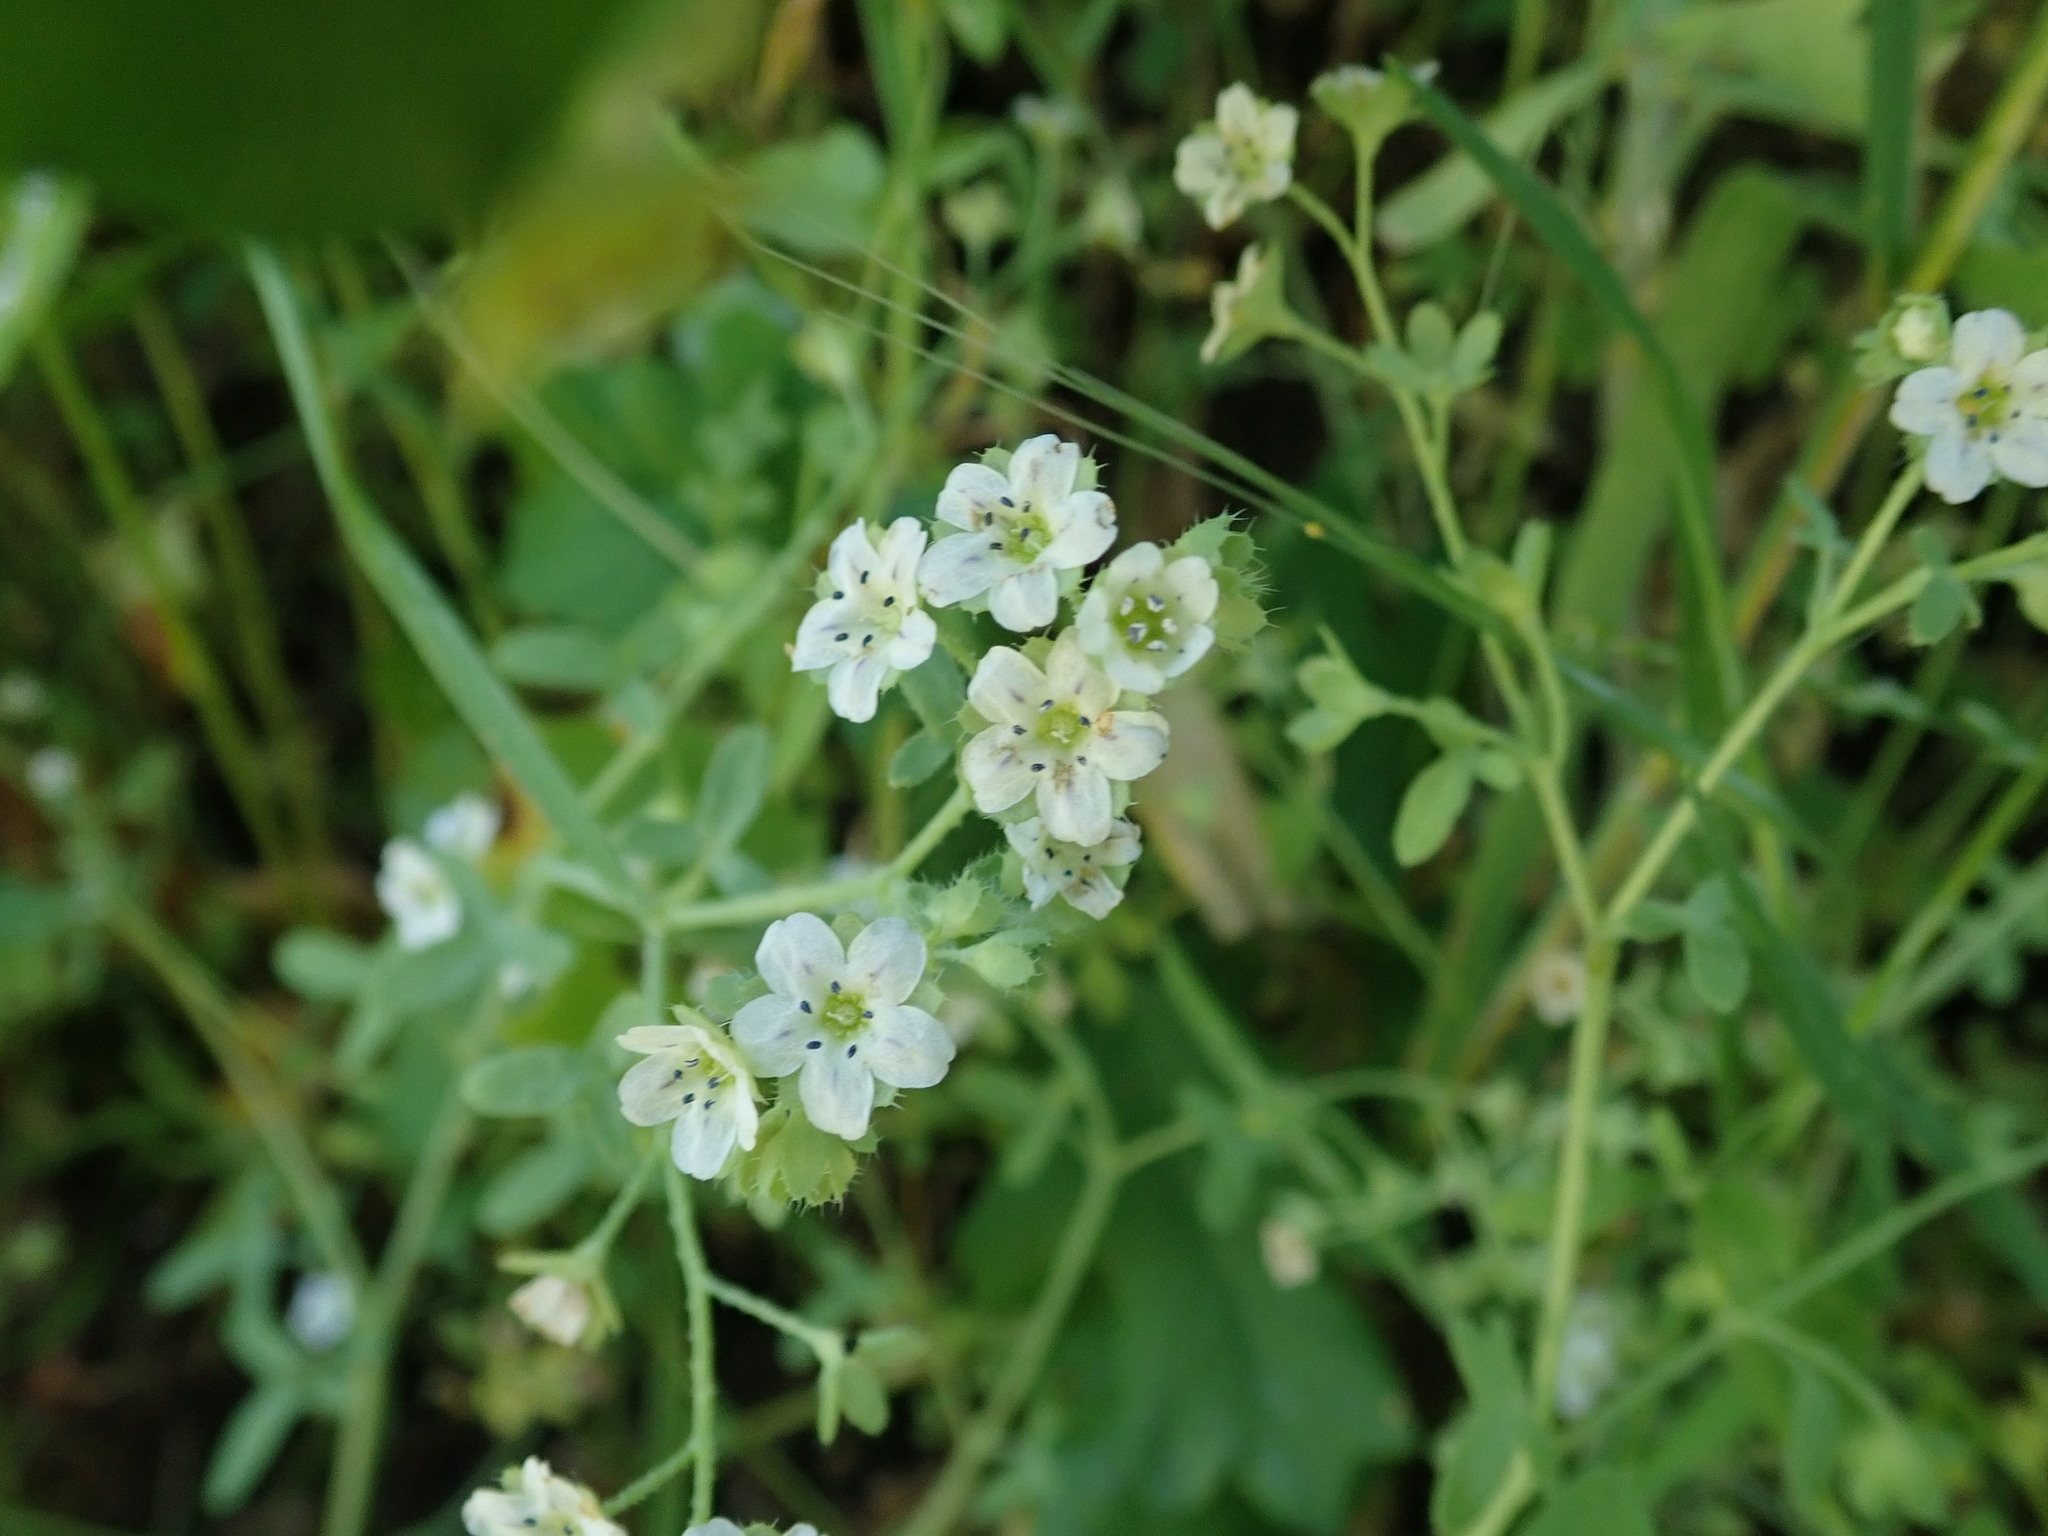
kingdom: Plantae
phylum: Tracheophyta
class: Magnoliopsida
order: Boraginales
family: Hydrophyllaceae
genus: Pholistoma
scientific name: Pholistoma membranaceum
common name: White fiesta-flower
